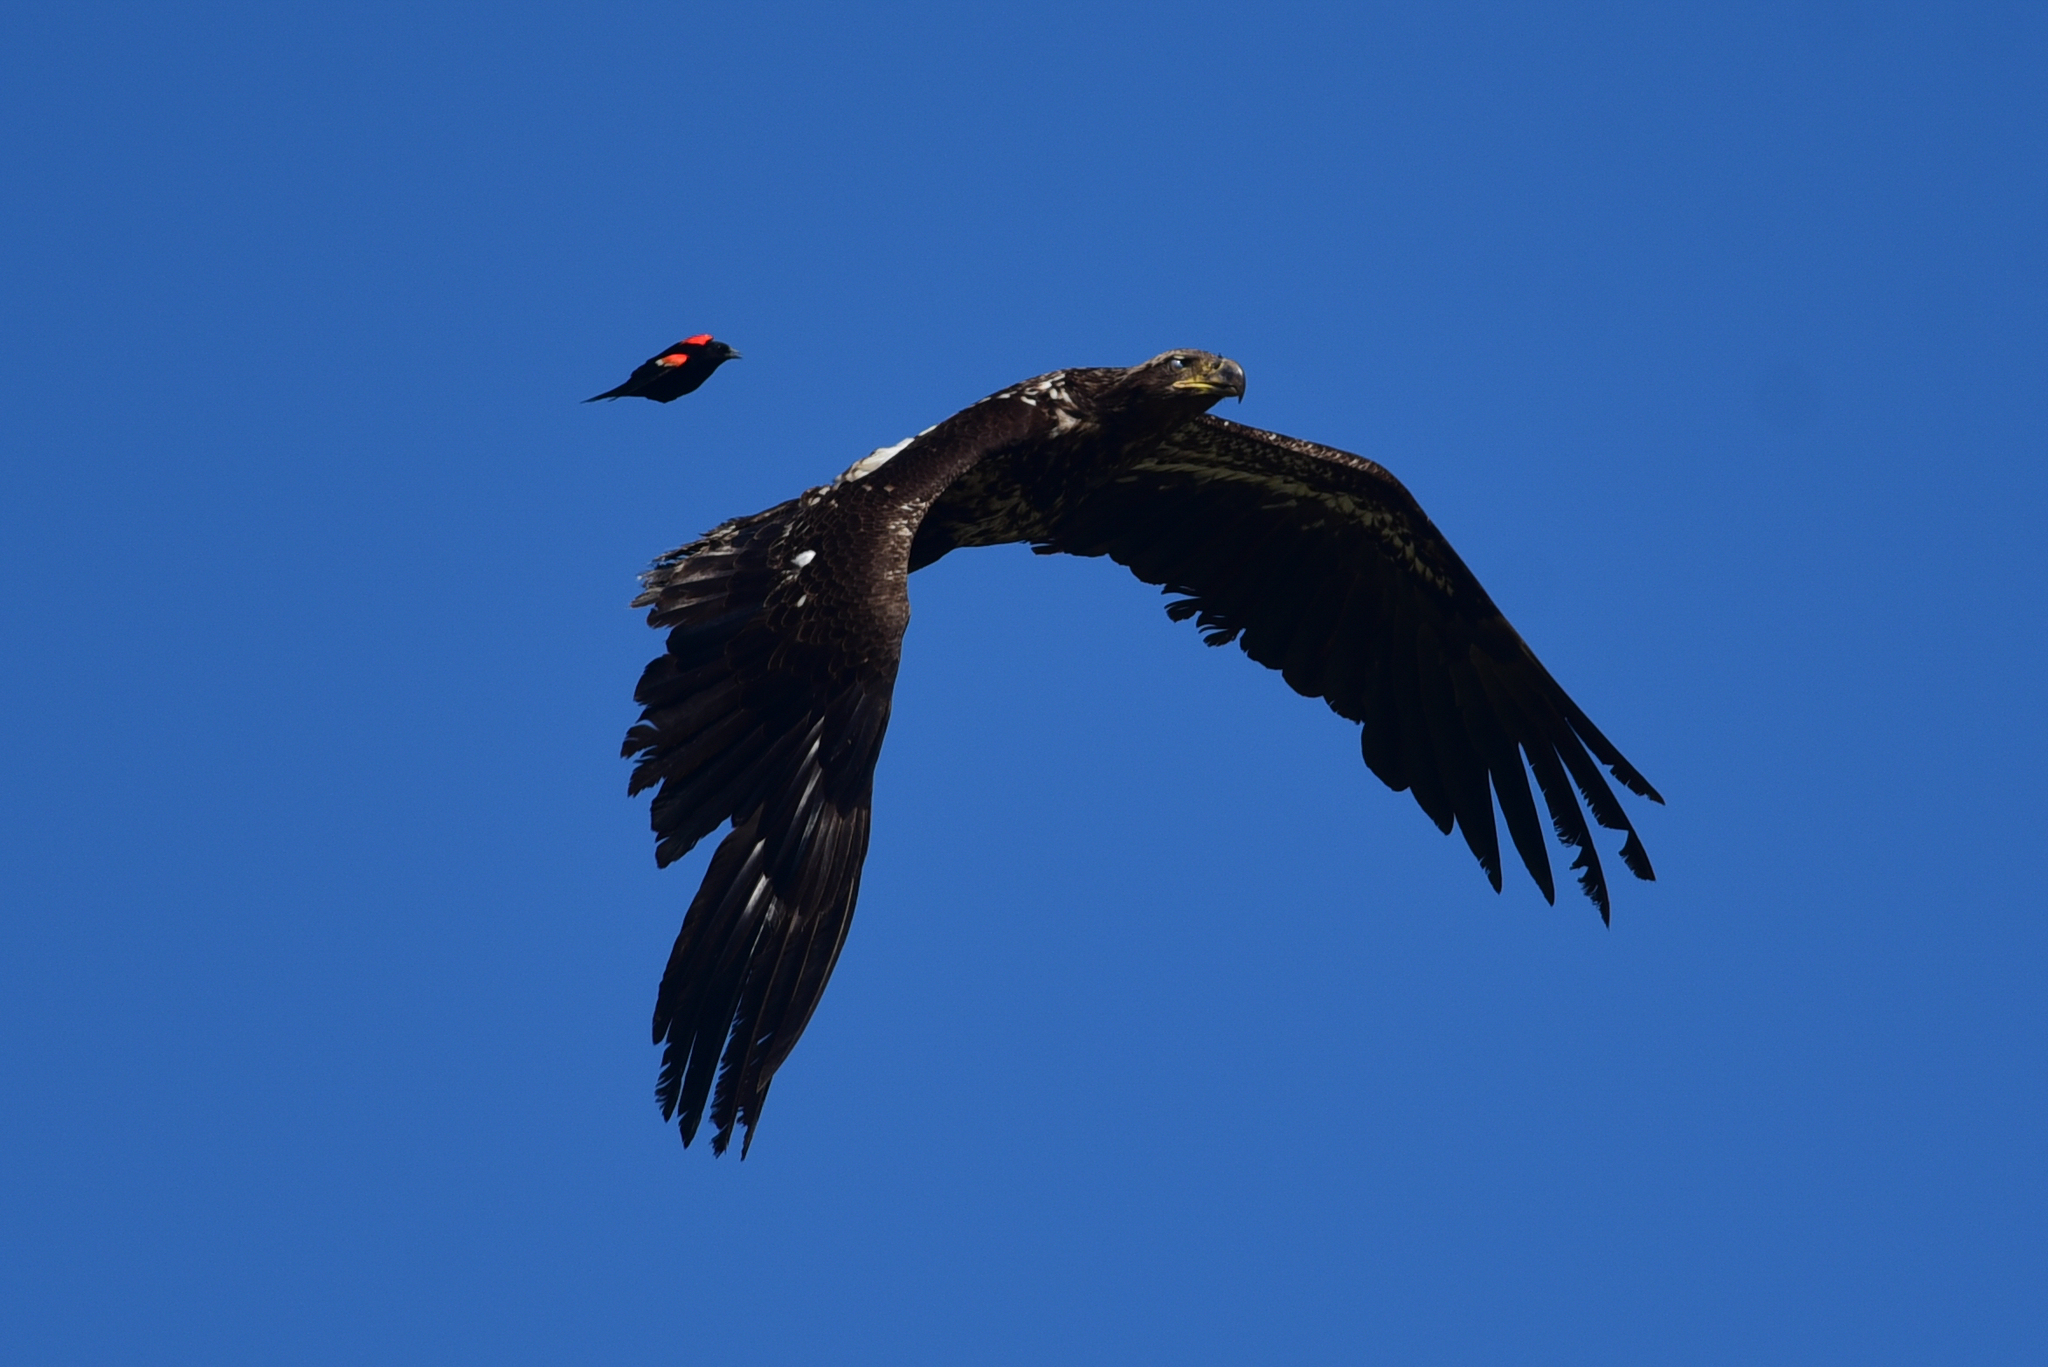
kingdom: Animalia
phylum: Chordata
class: Aves
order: Passeriformes
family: Icteridae
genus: Agelaius
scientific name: Agelaius phoeniceus
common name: Red-winged blackbird
